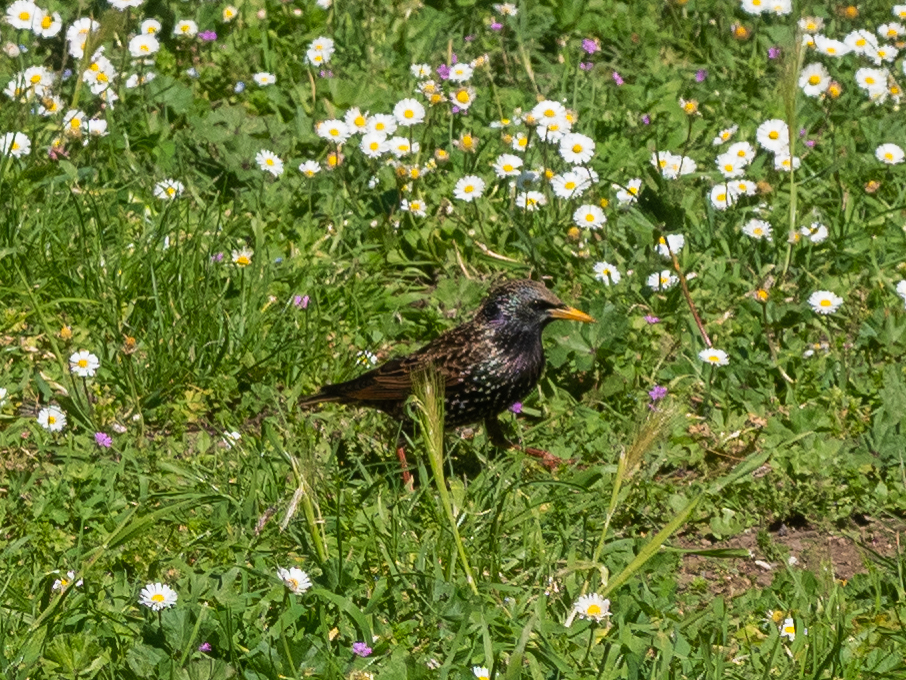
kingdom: Animalia
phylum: Chordata
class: Aves
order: Passeriformes
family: Sturnidae
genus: Sturnus
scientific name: Sturnus vulgaris
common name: Common starling
